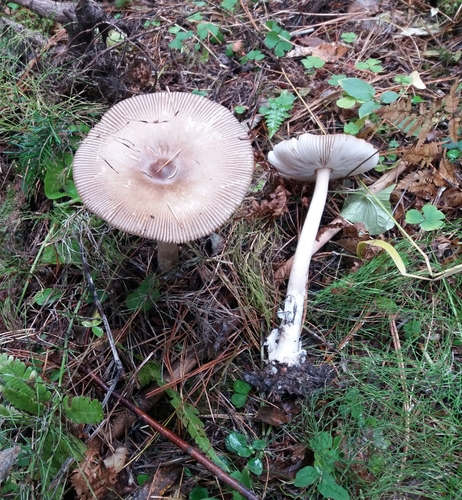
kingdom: Fungi
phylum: Basidiomycota
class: Agaricomycetes
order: Agaricales
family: Amanitaceae
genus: Amanita
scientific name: Amanita fulva
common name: Tawny grisette
